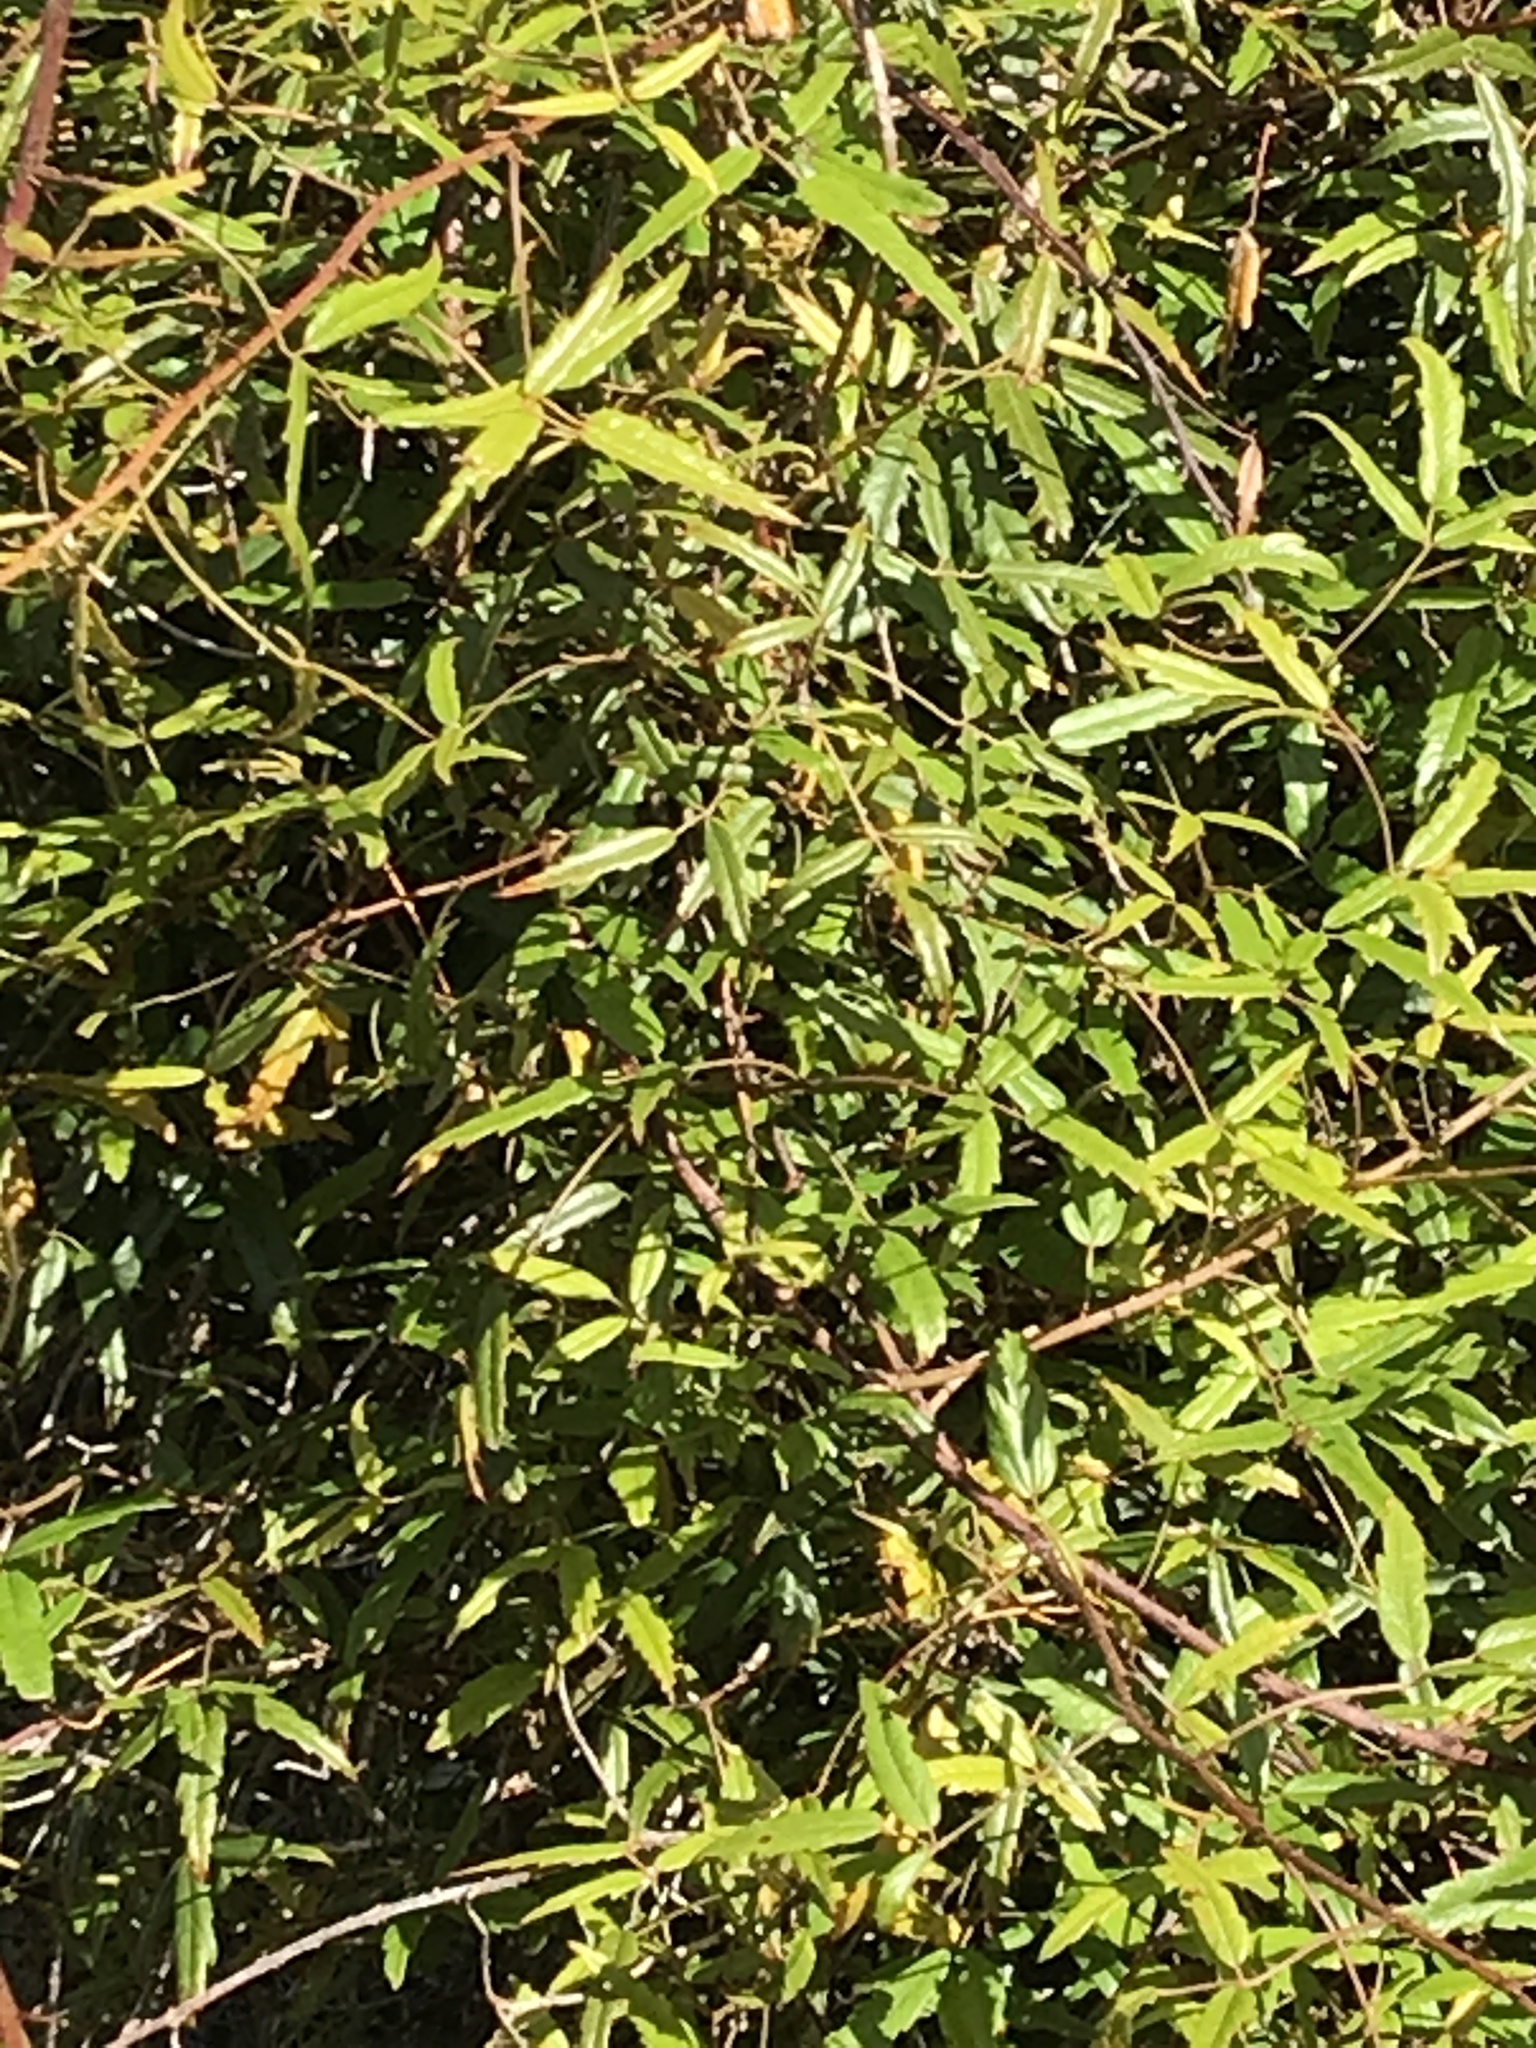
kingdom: Plantae
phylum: Tracheophyta
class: Magnoliopsida
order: Rosales
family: Rosaceae
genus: Rubus
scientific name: Rubus schmidelioides
